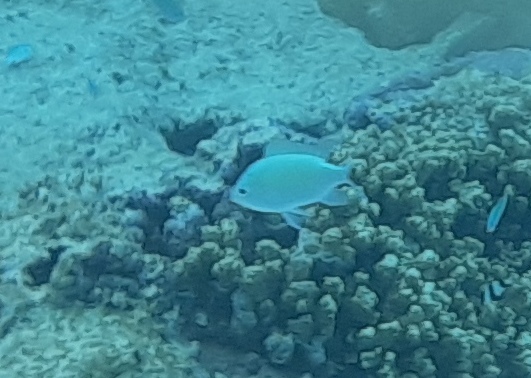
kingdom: Animalia
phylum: Chordata
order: Perciformes
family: Pomacentridae
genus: Chromis
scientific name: Chromis viridis
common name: Blue-green chromis
